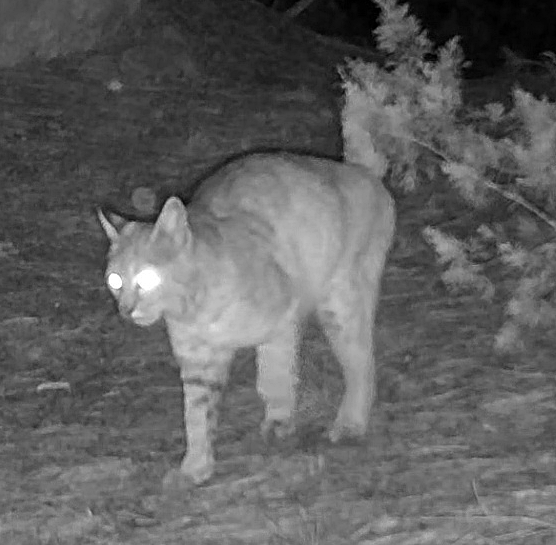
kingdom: Animalia
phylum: Chordata
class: Mammalia
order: Carnivora
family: Felidae
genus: Lynx
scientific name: Lynx rufus
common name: Bobcat
